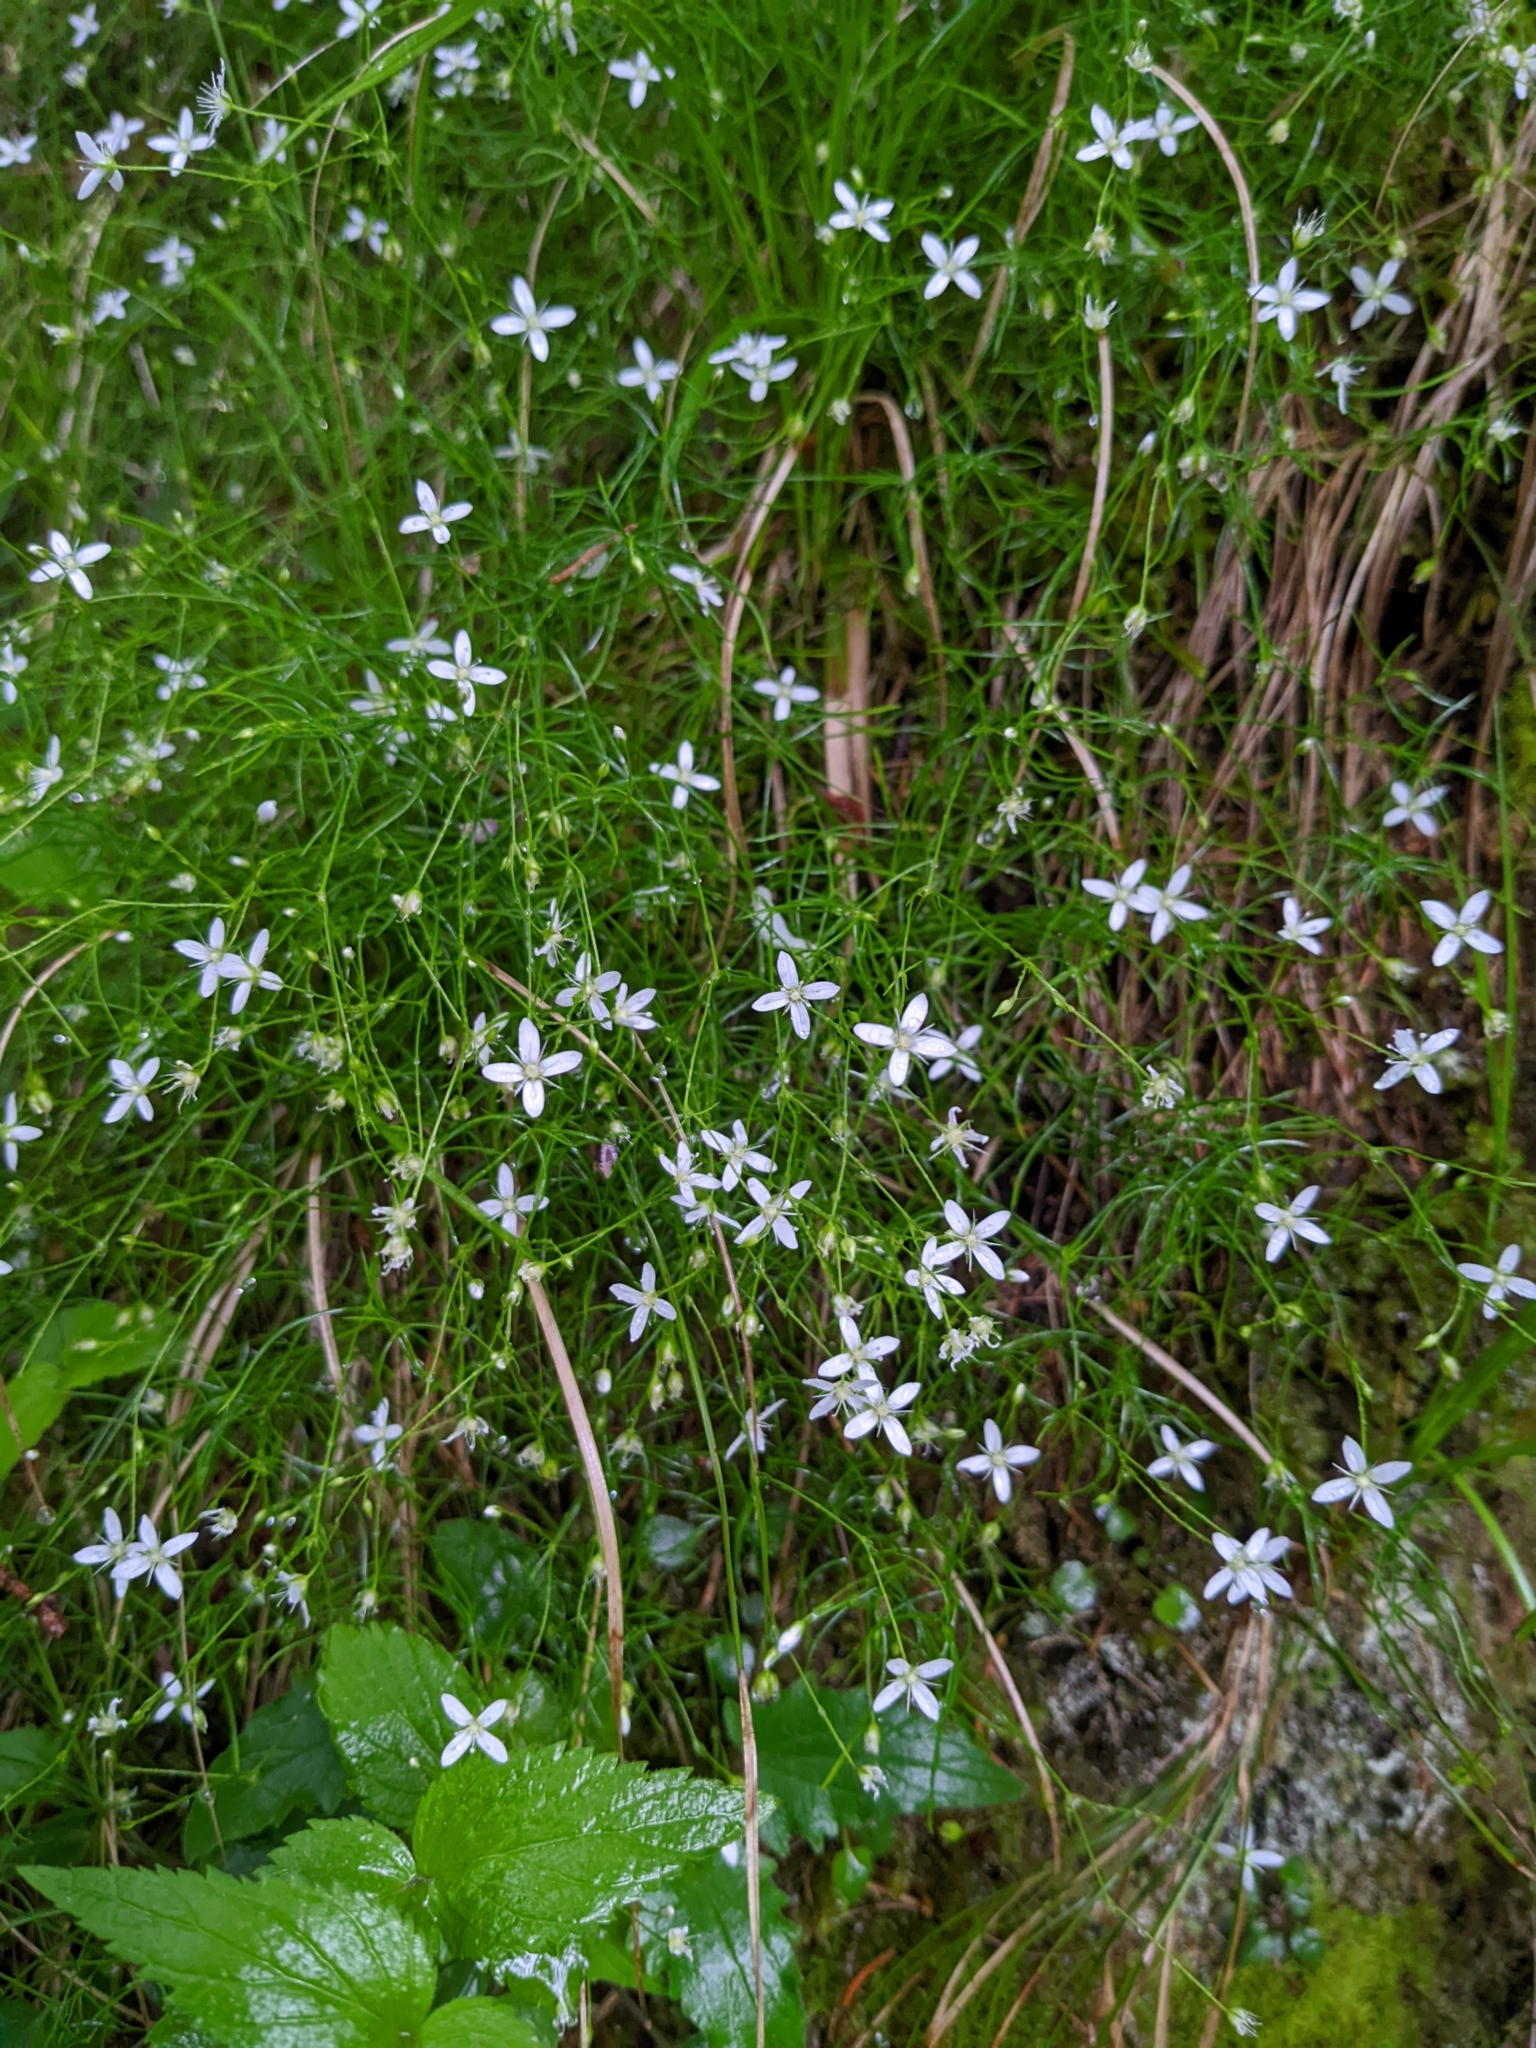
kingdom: Plantae
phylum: Tracheophyta
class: Magnoliopsida
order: Caryophyllales
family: Caryophyllaceae
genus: Moehringia
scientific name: Moehringia muscosa
